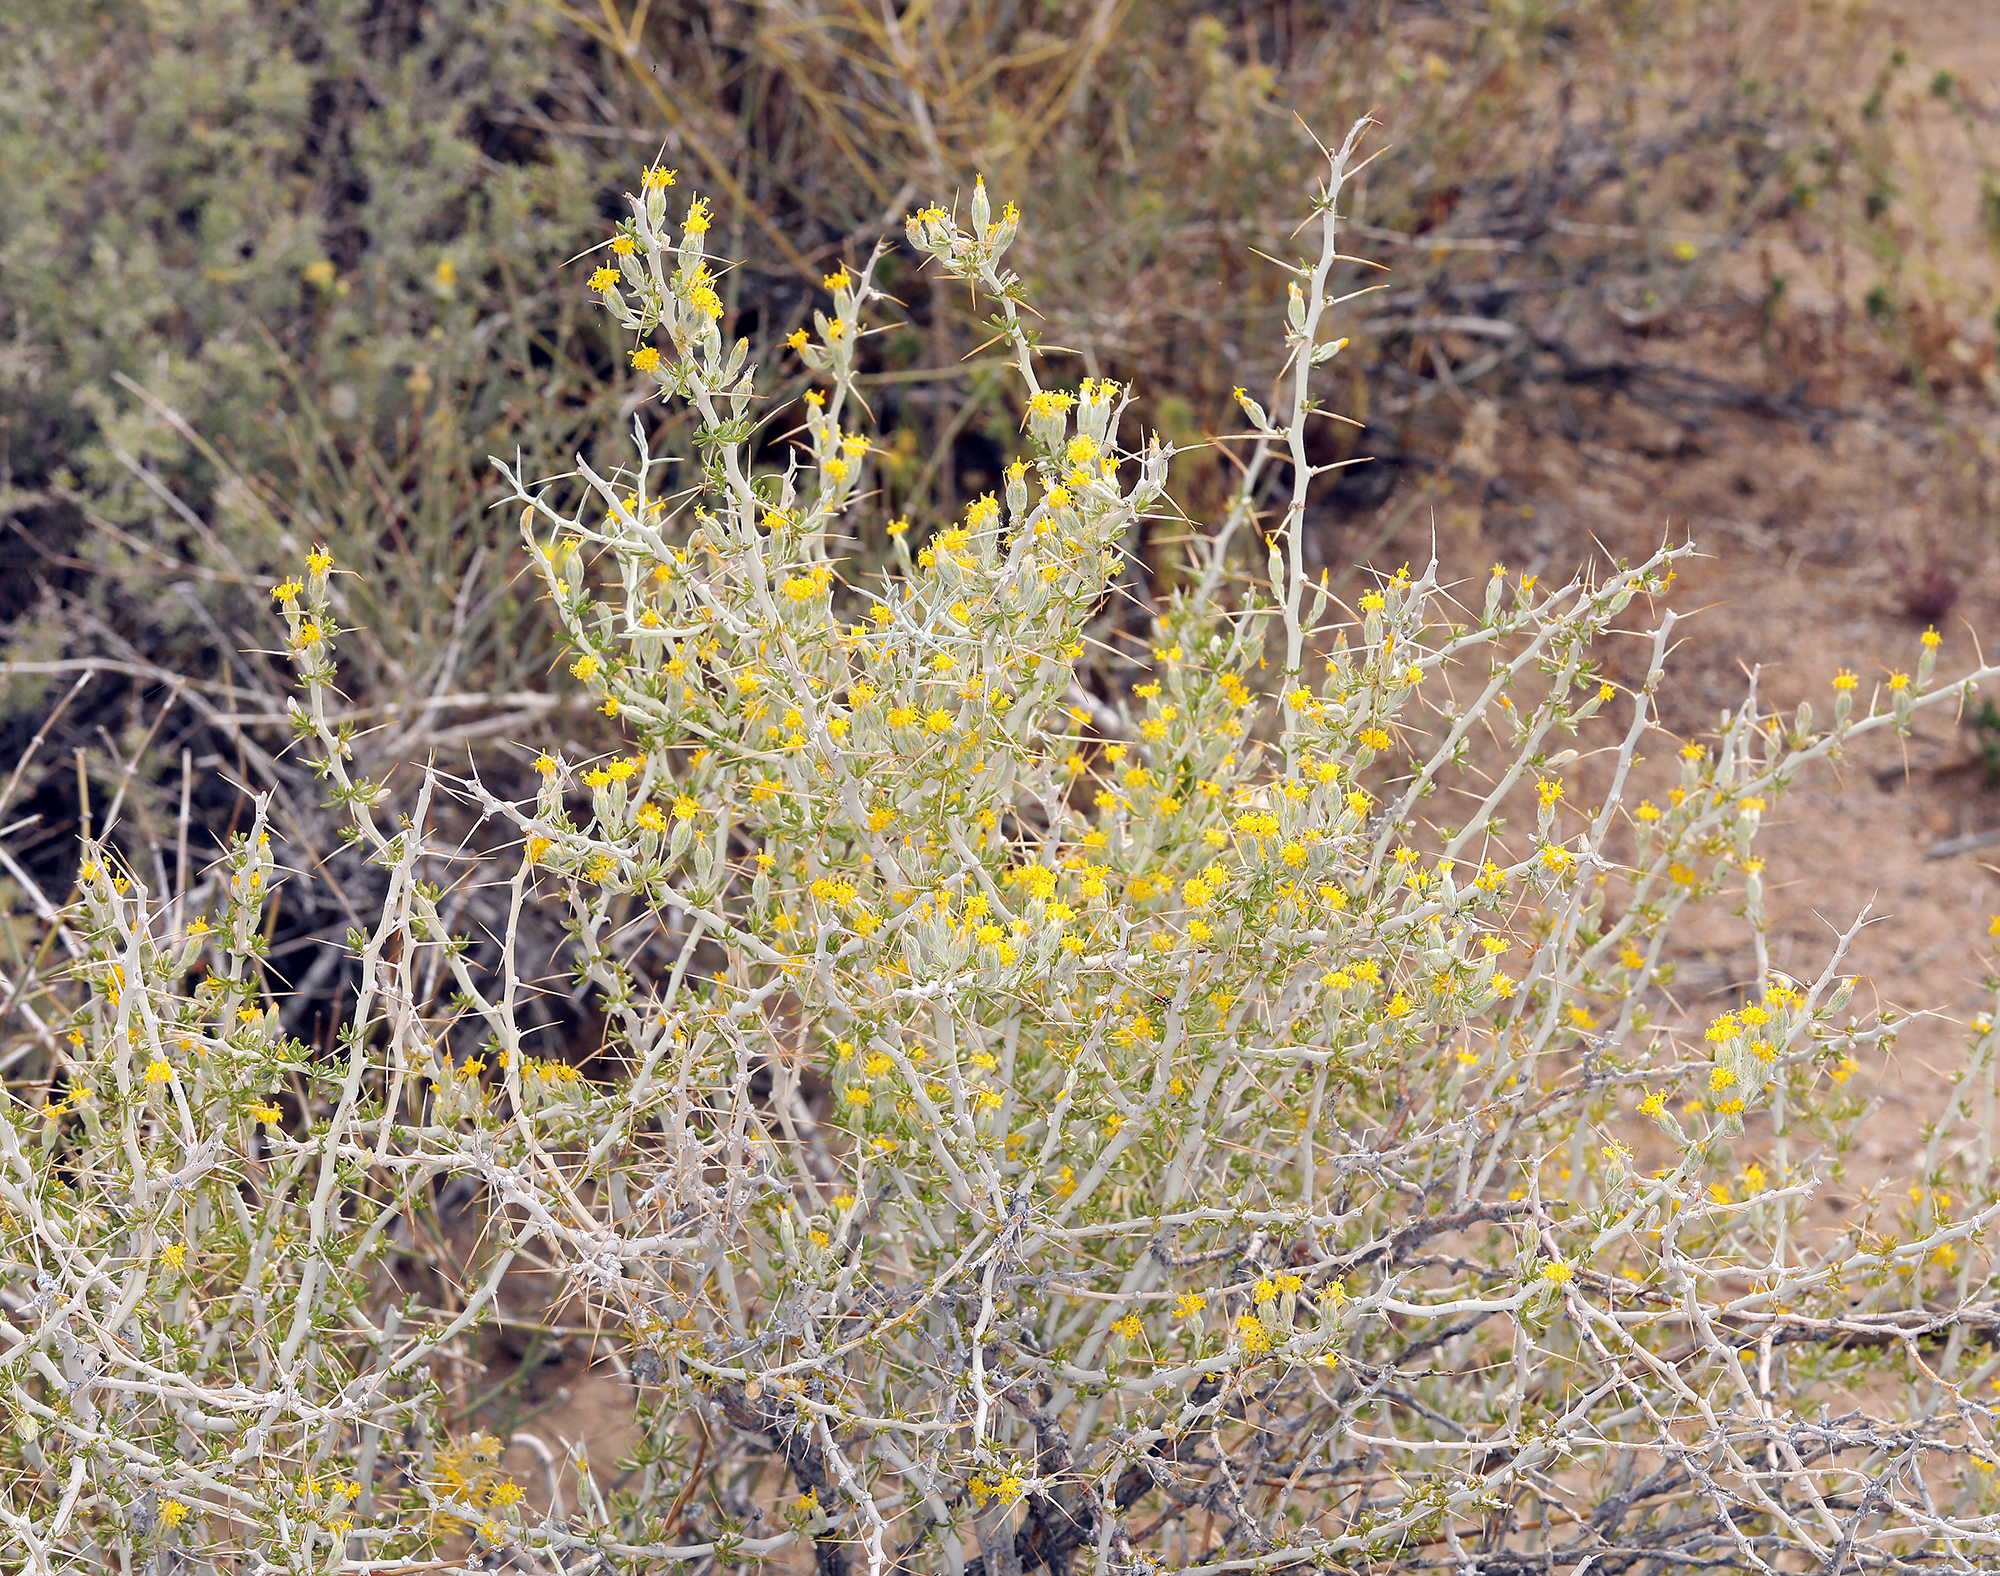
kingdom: Plantae
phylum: Tracheophyta
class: Magnoliopsida
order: Asterales
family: Asteraceae
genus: Tetradymia
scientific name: Tetradymia axillaris
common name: Long-spine horsebrush
